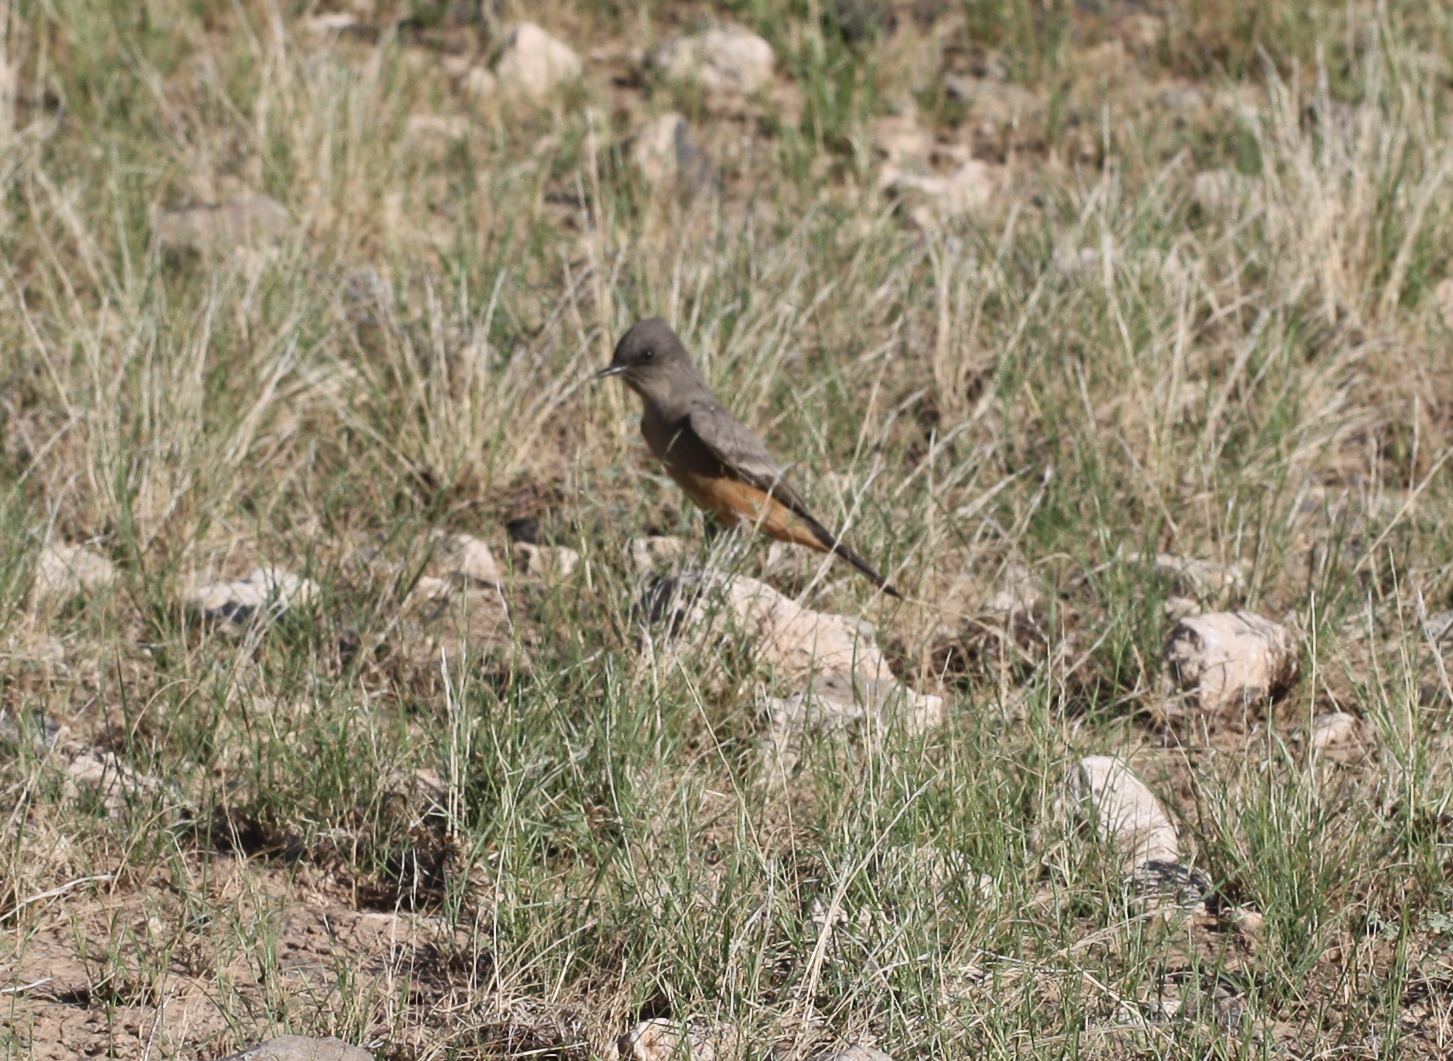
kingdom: Animalia
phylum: Chordata
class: Aves
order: Passeriformes
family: Tyrannidae
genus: Sayornis
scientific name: Sayornis saya
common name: Say's phoebe
